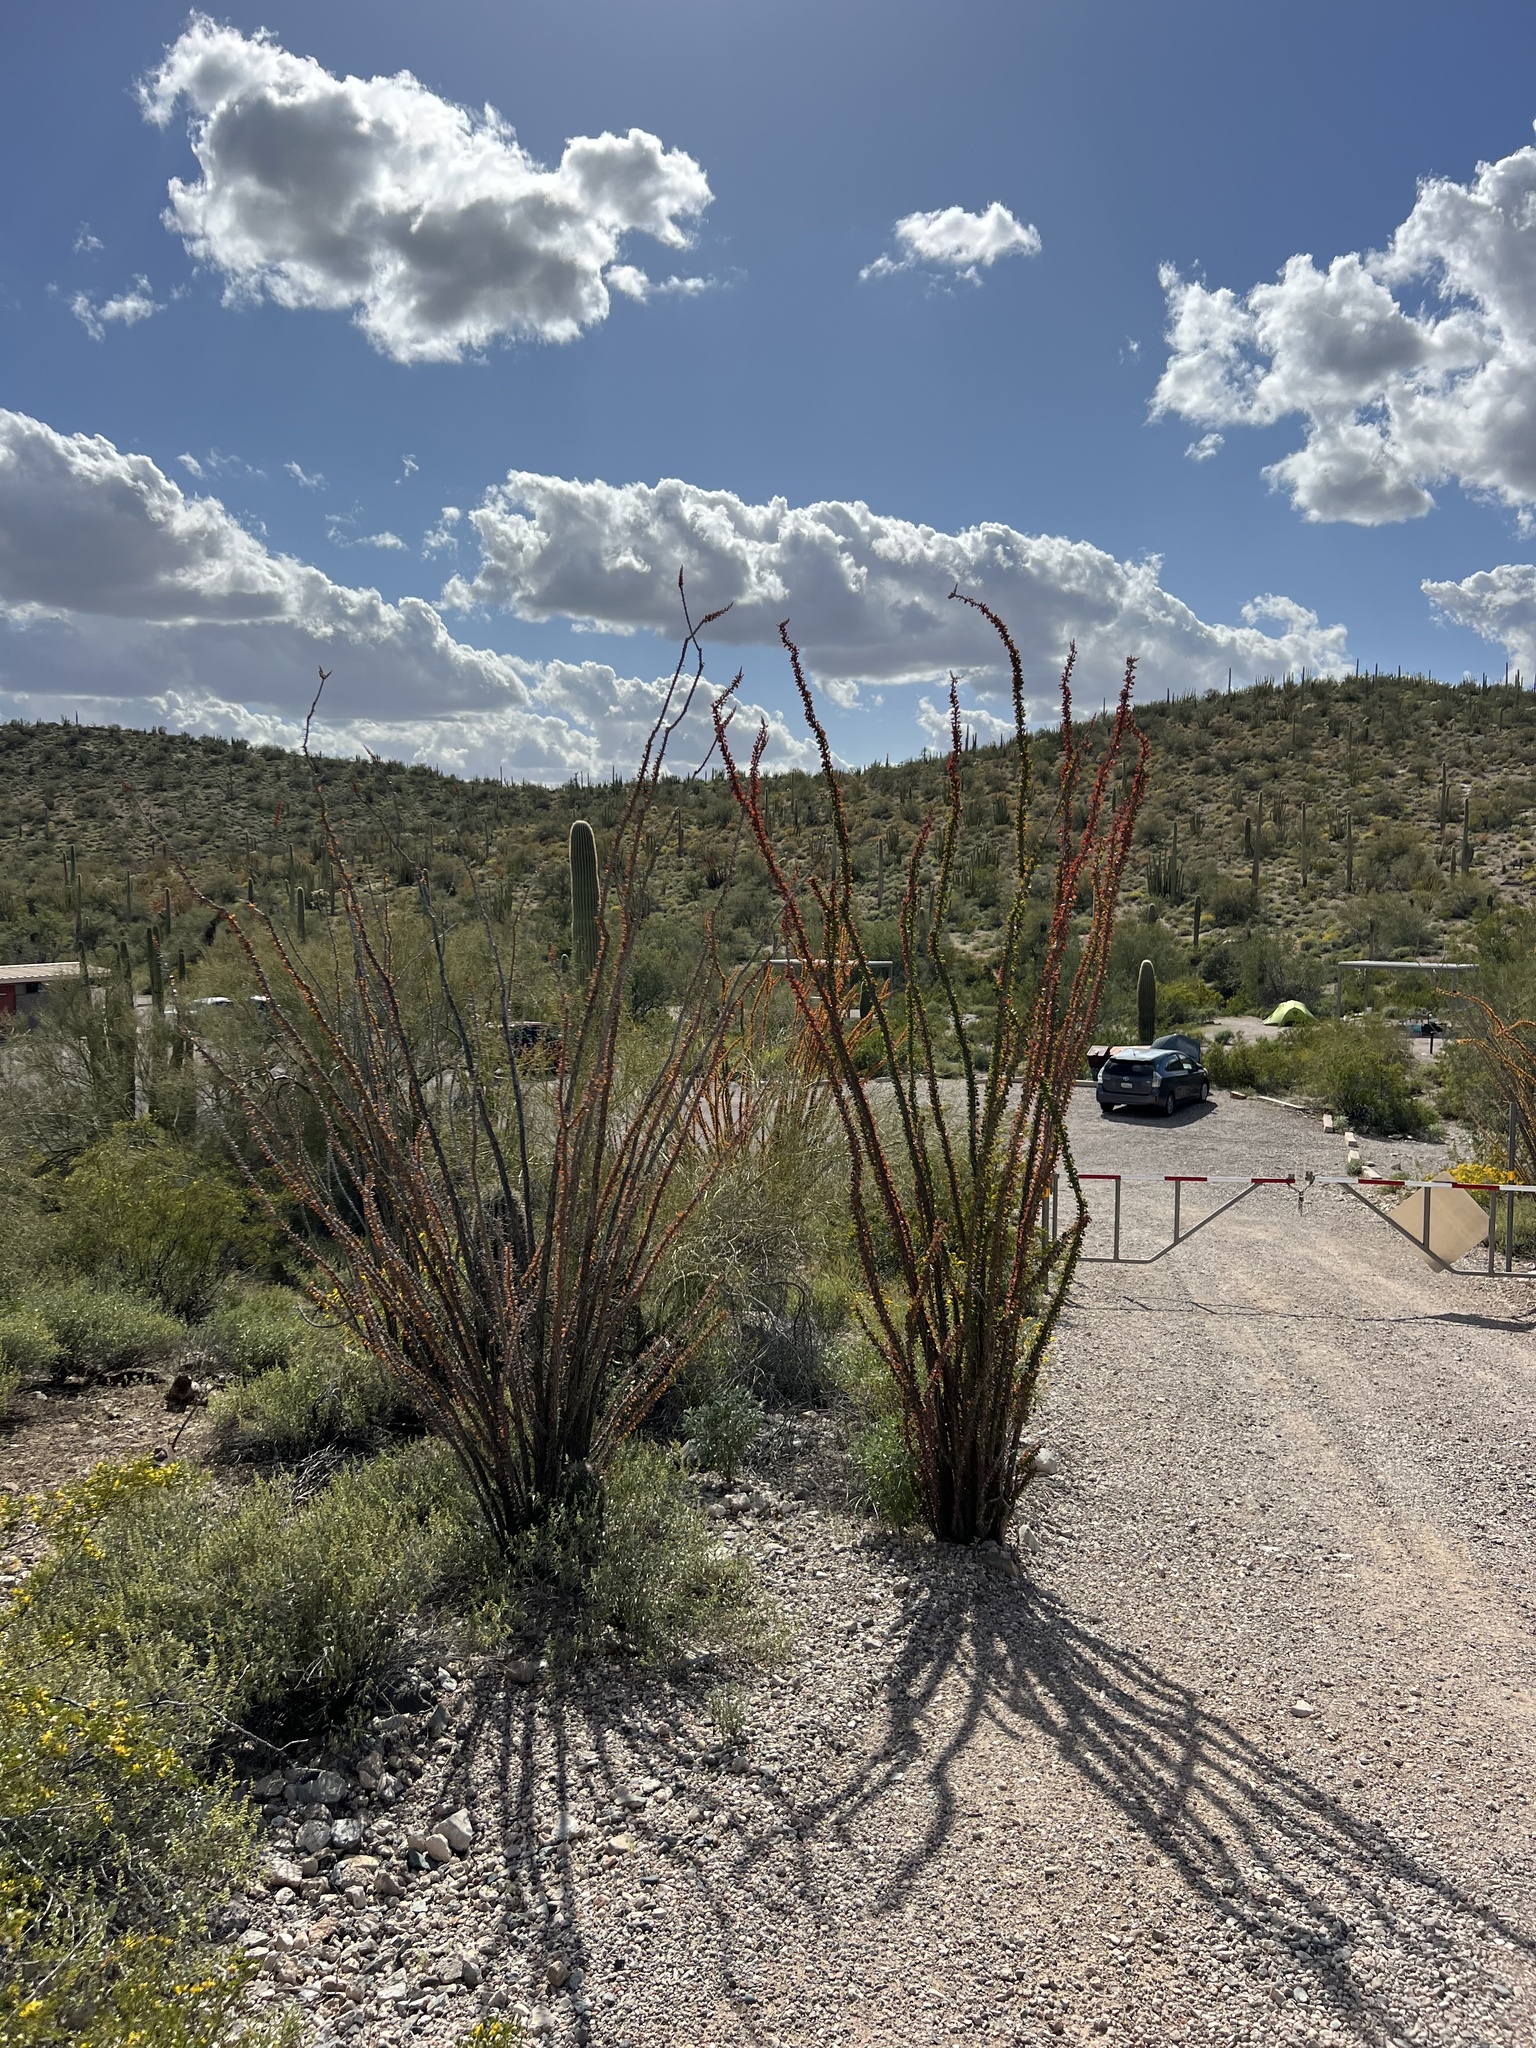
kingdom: Plantae
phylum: Tracheophyta
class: Magnoliopsida
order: Ericales
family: Fouquieriaceae
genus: Fouquieria
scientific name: Fouquieria splendens
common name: Vine-cactus
